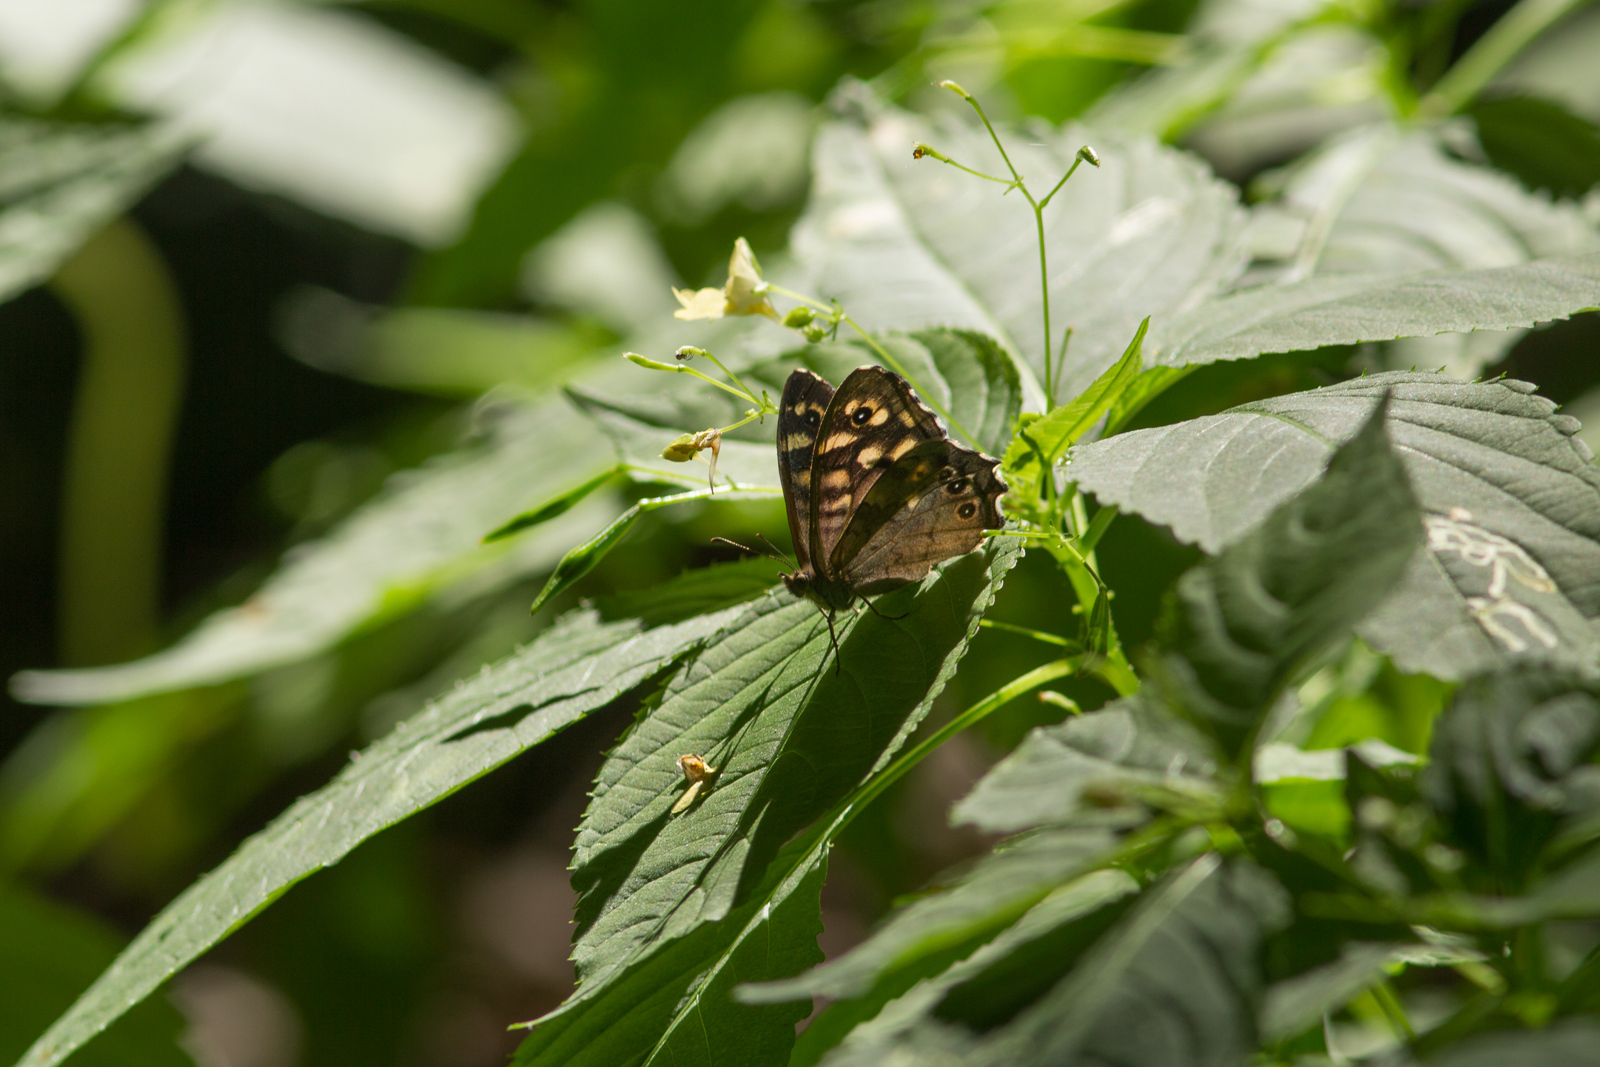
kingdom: Animalia
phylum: Arthropoda
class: Insecta
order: Lepidoptera
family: Nymphalidae
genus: Pararge
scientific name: Pararge aegeria
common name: Speckled wood
